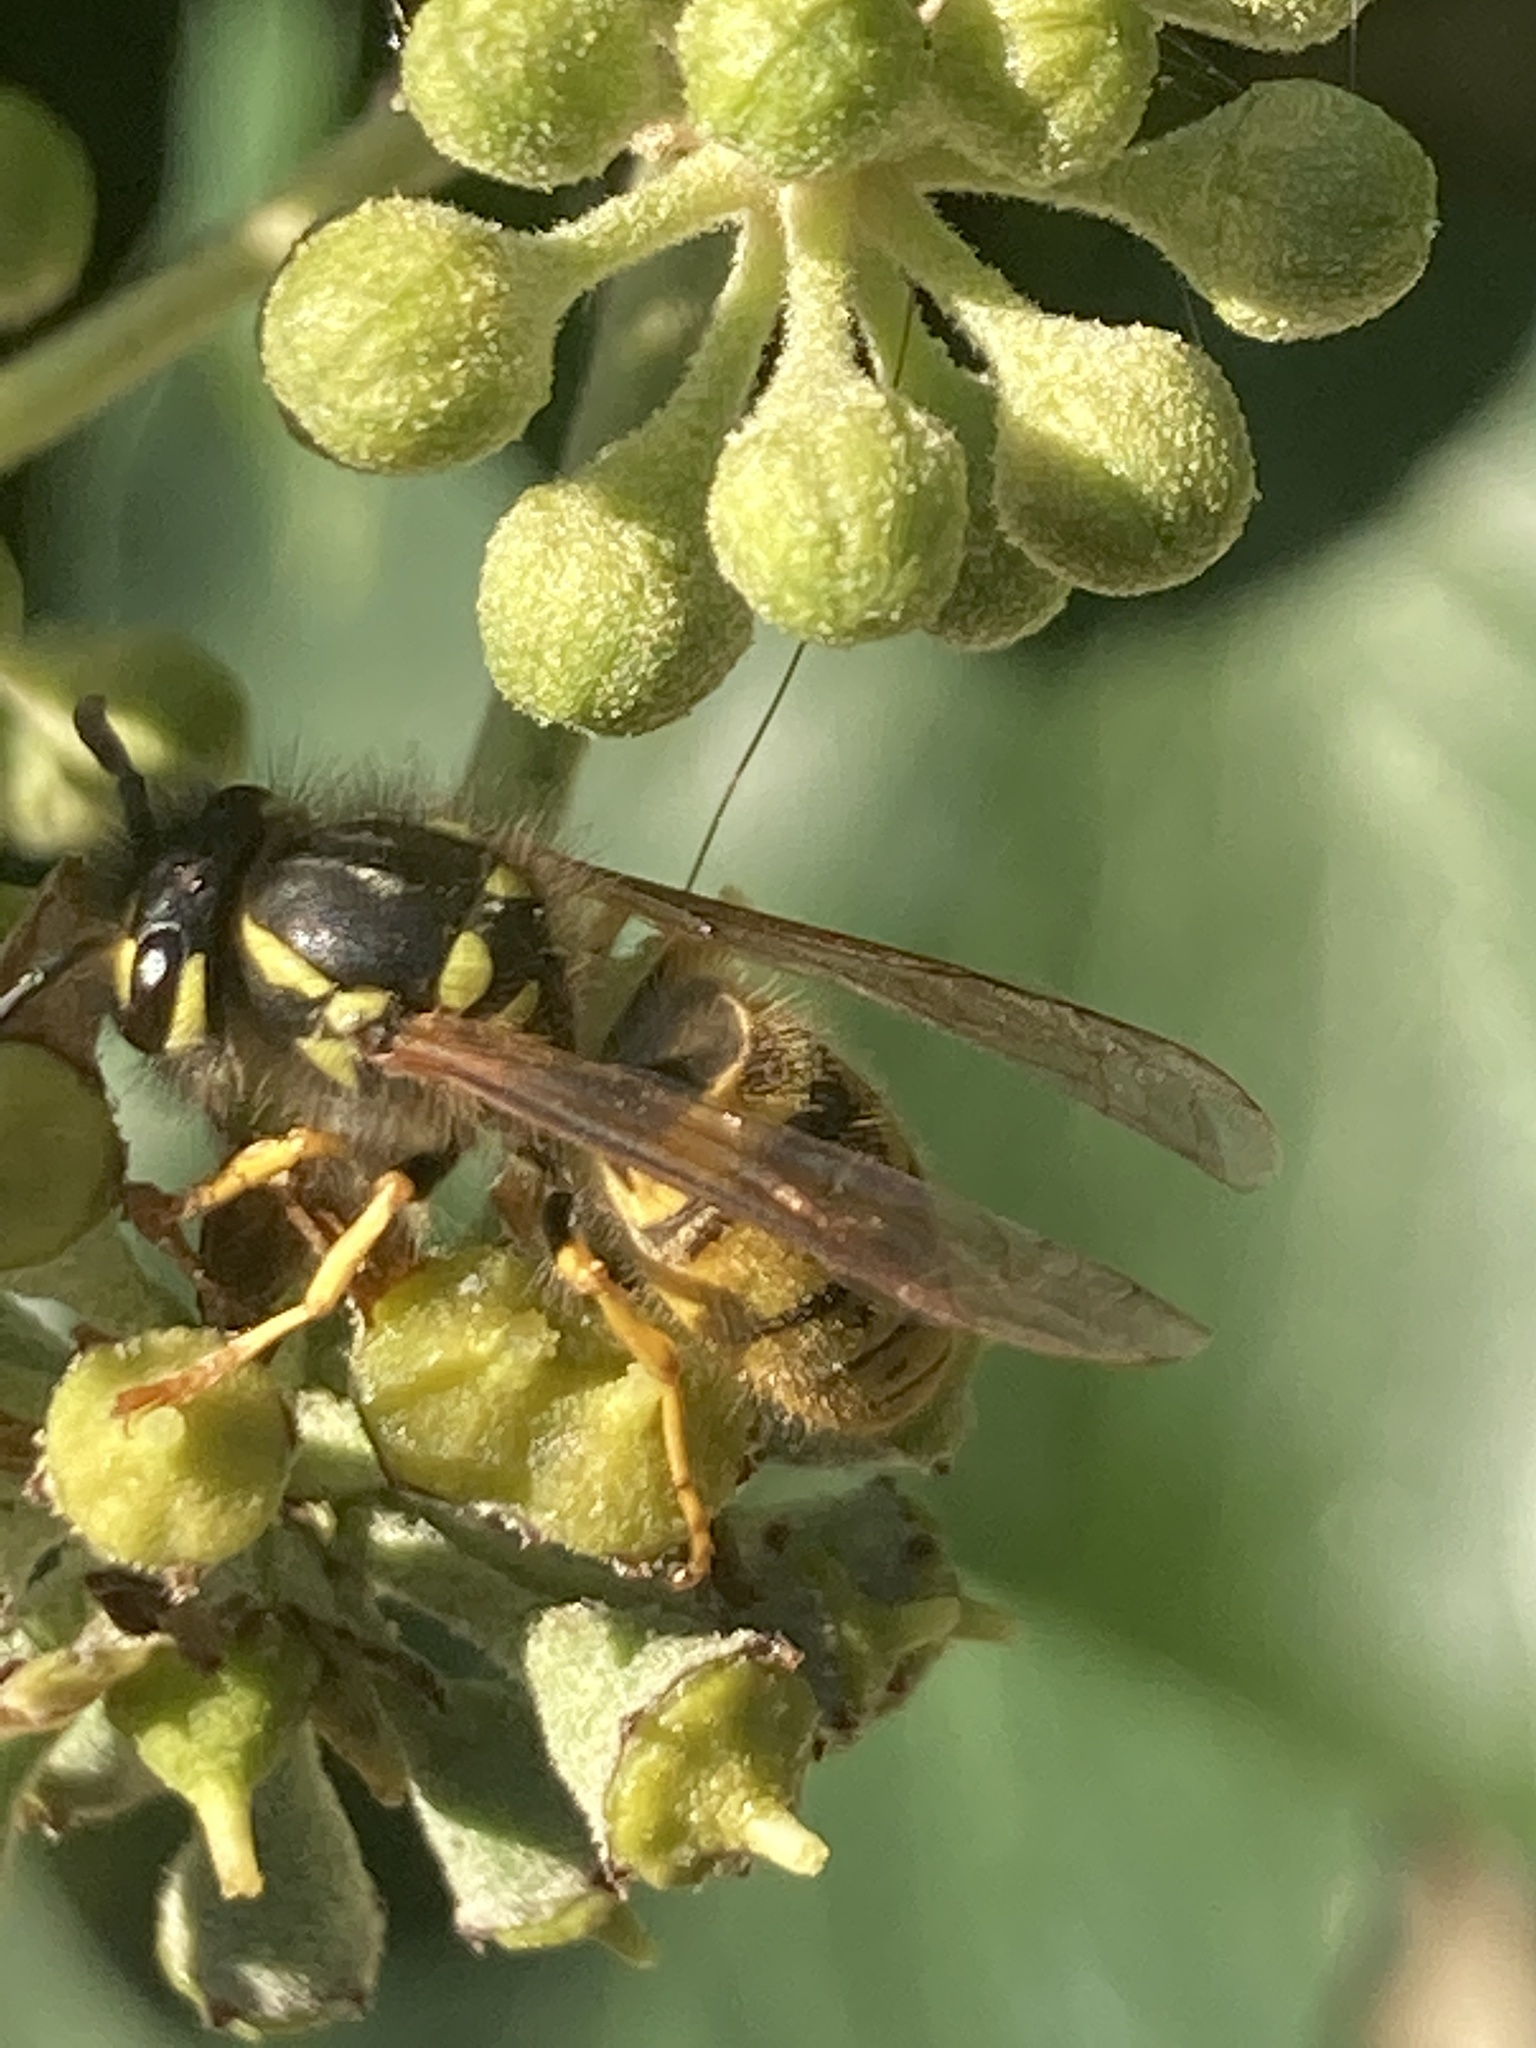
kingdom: Animalia
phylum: Arthropoda
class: Insecta
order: Hymenoptera
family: Vespidae
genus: Vespula
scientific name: Vespula vulgaris
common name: Common wasp
